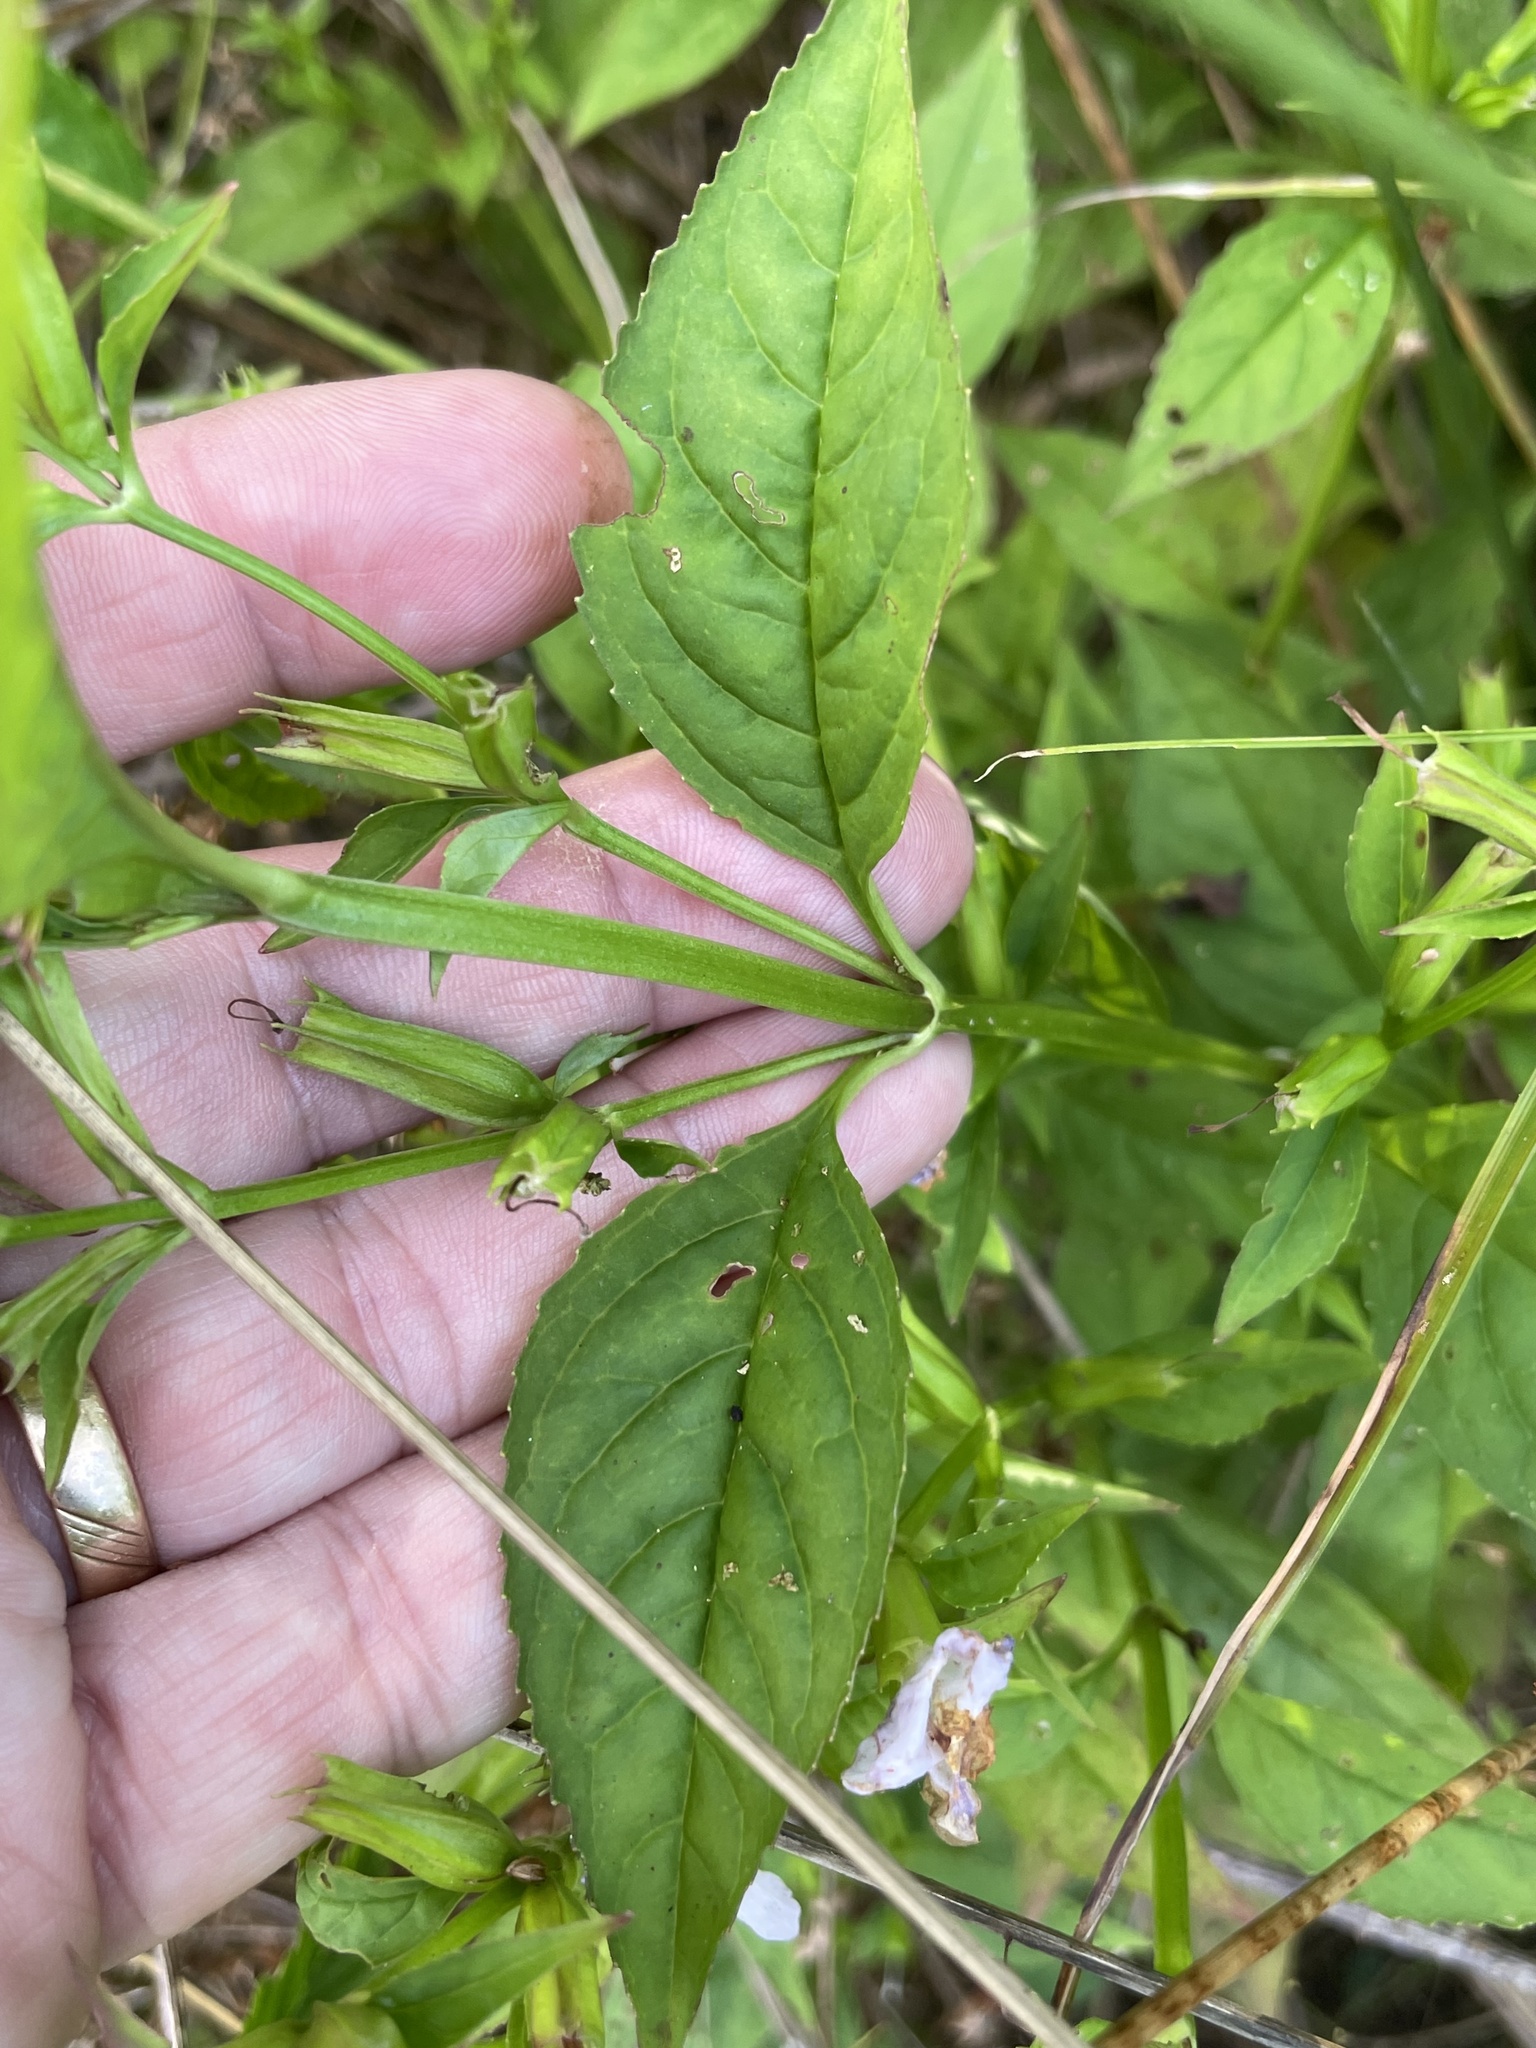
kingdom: Plantae
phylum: Tracheophyta
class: Magnoliopsida
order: Lamiales
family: Phrymaceae
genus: Mimulus
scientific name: Mimulus alatus
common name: Sharp-wing monkey-flower
